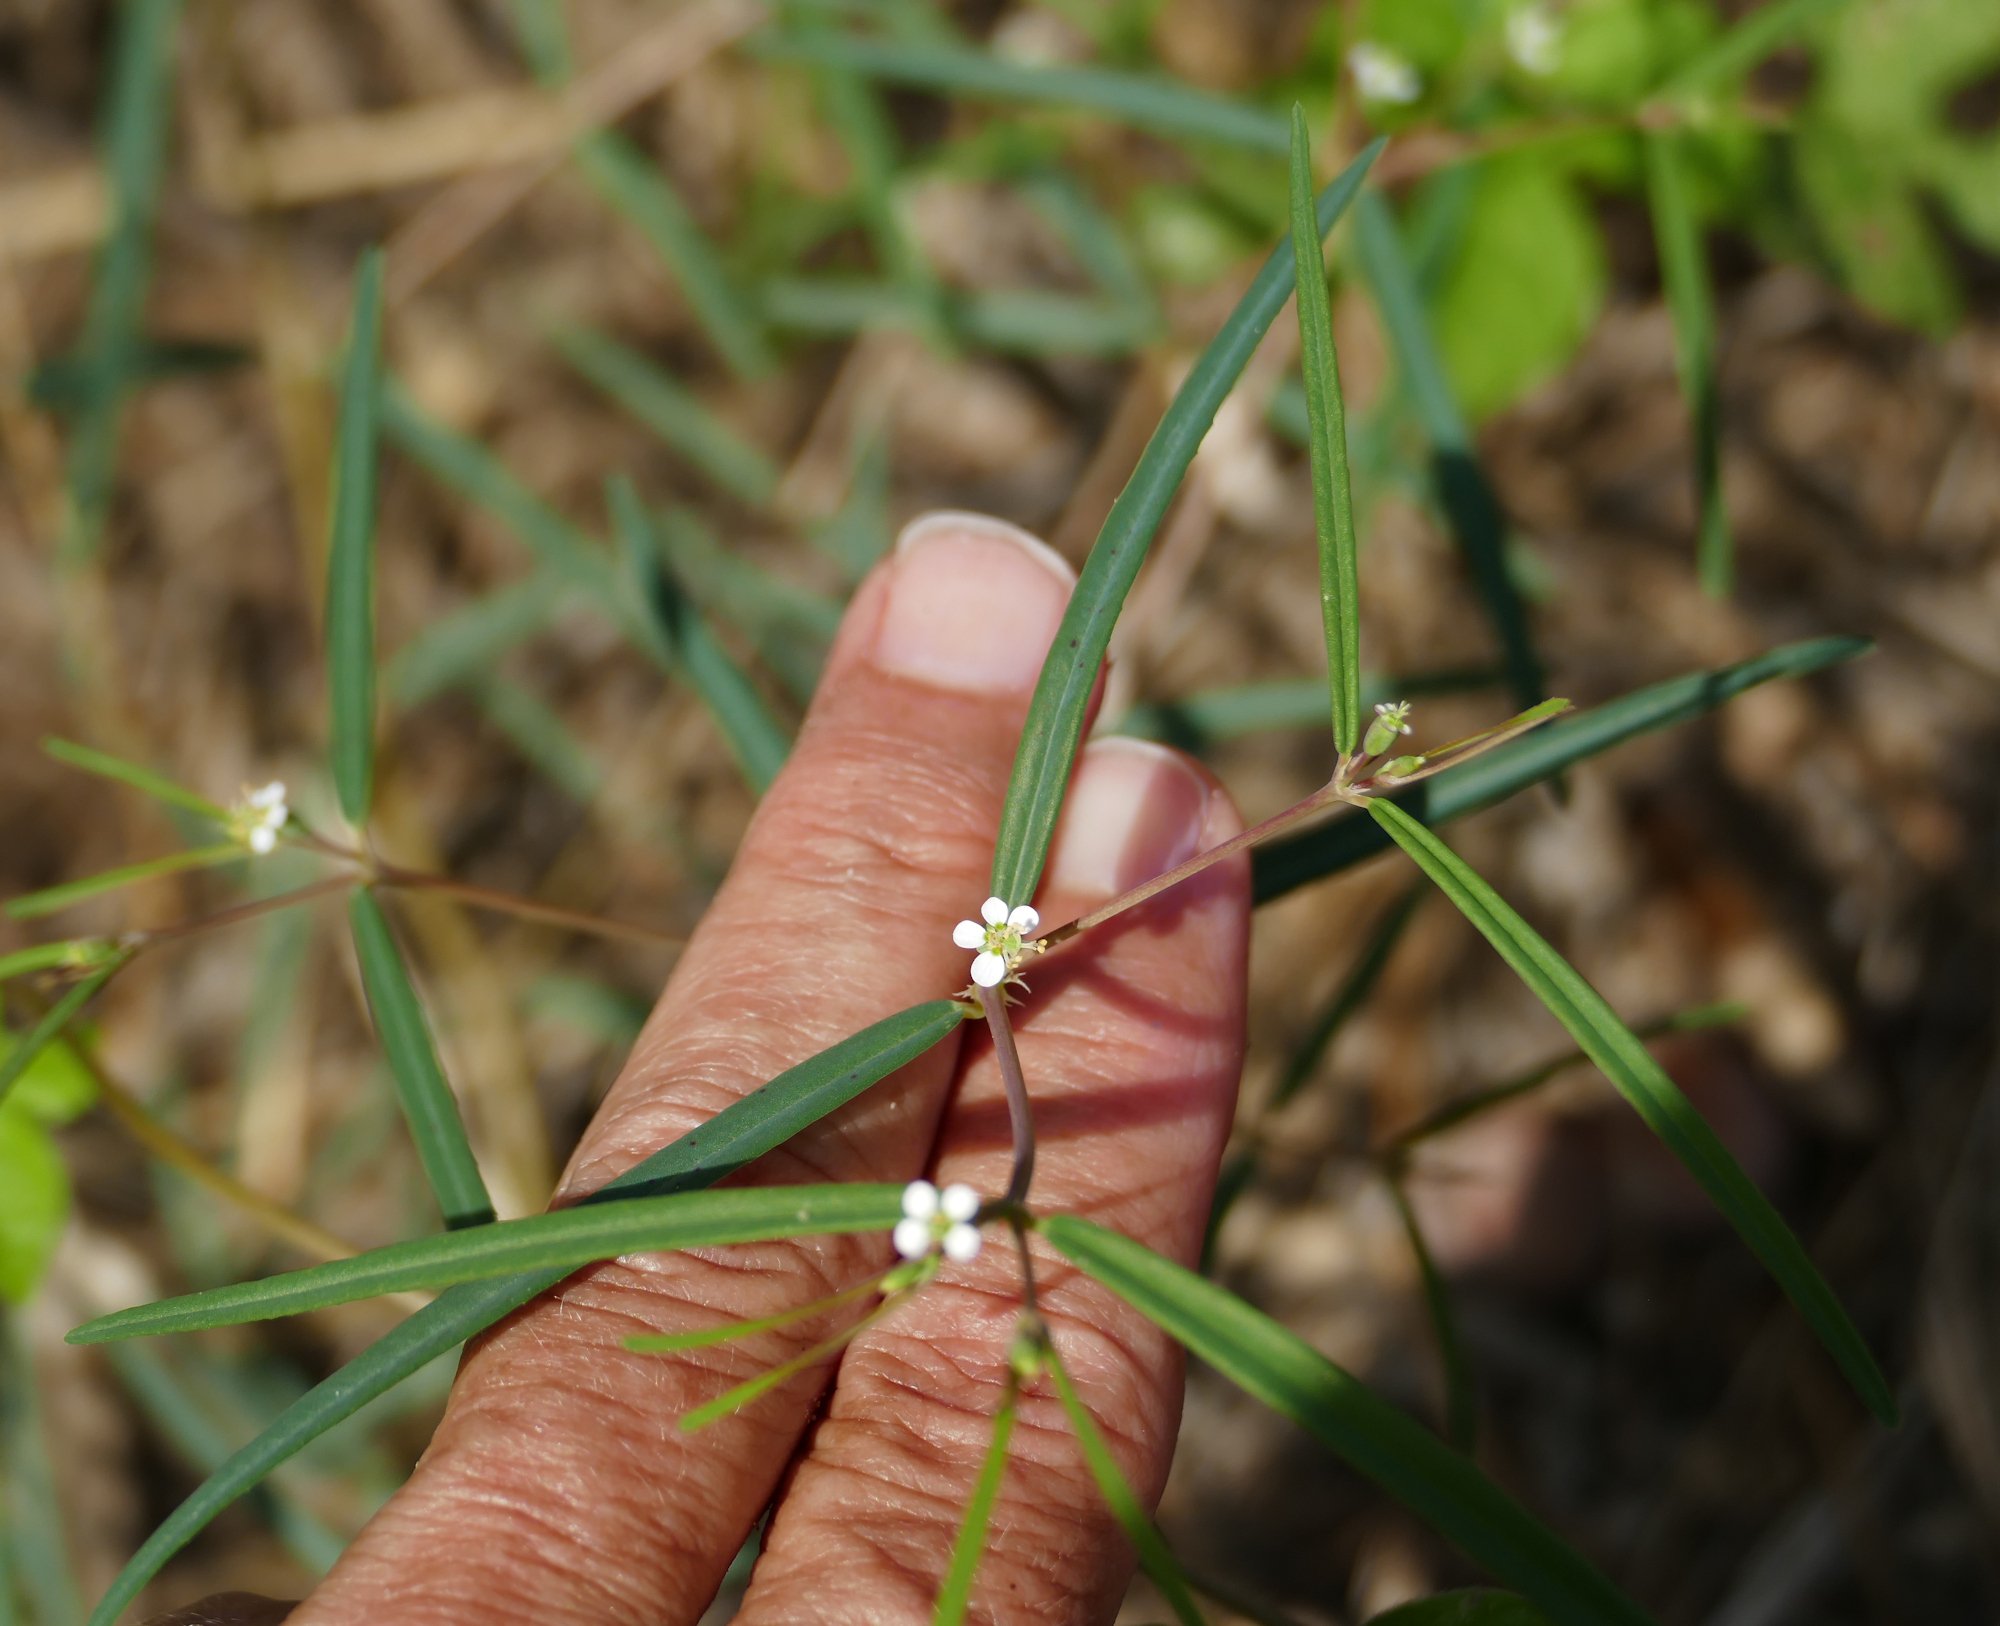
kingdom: Plantae
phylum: Tracheophyta
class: Magnoliopsida
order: Malpighiales
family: Euphorbiaceae
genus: Euphorbia
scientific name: Euphorbia florida
